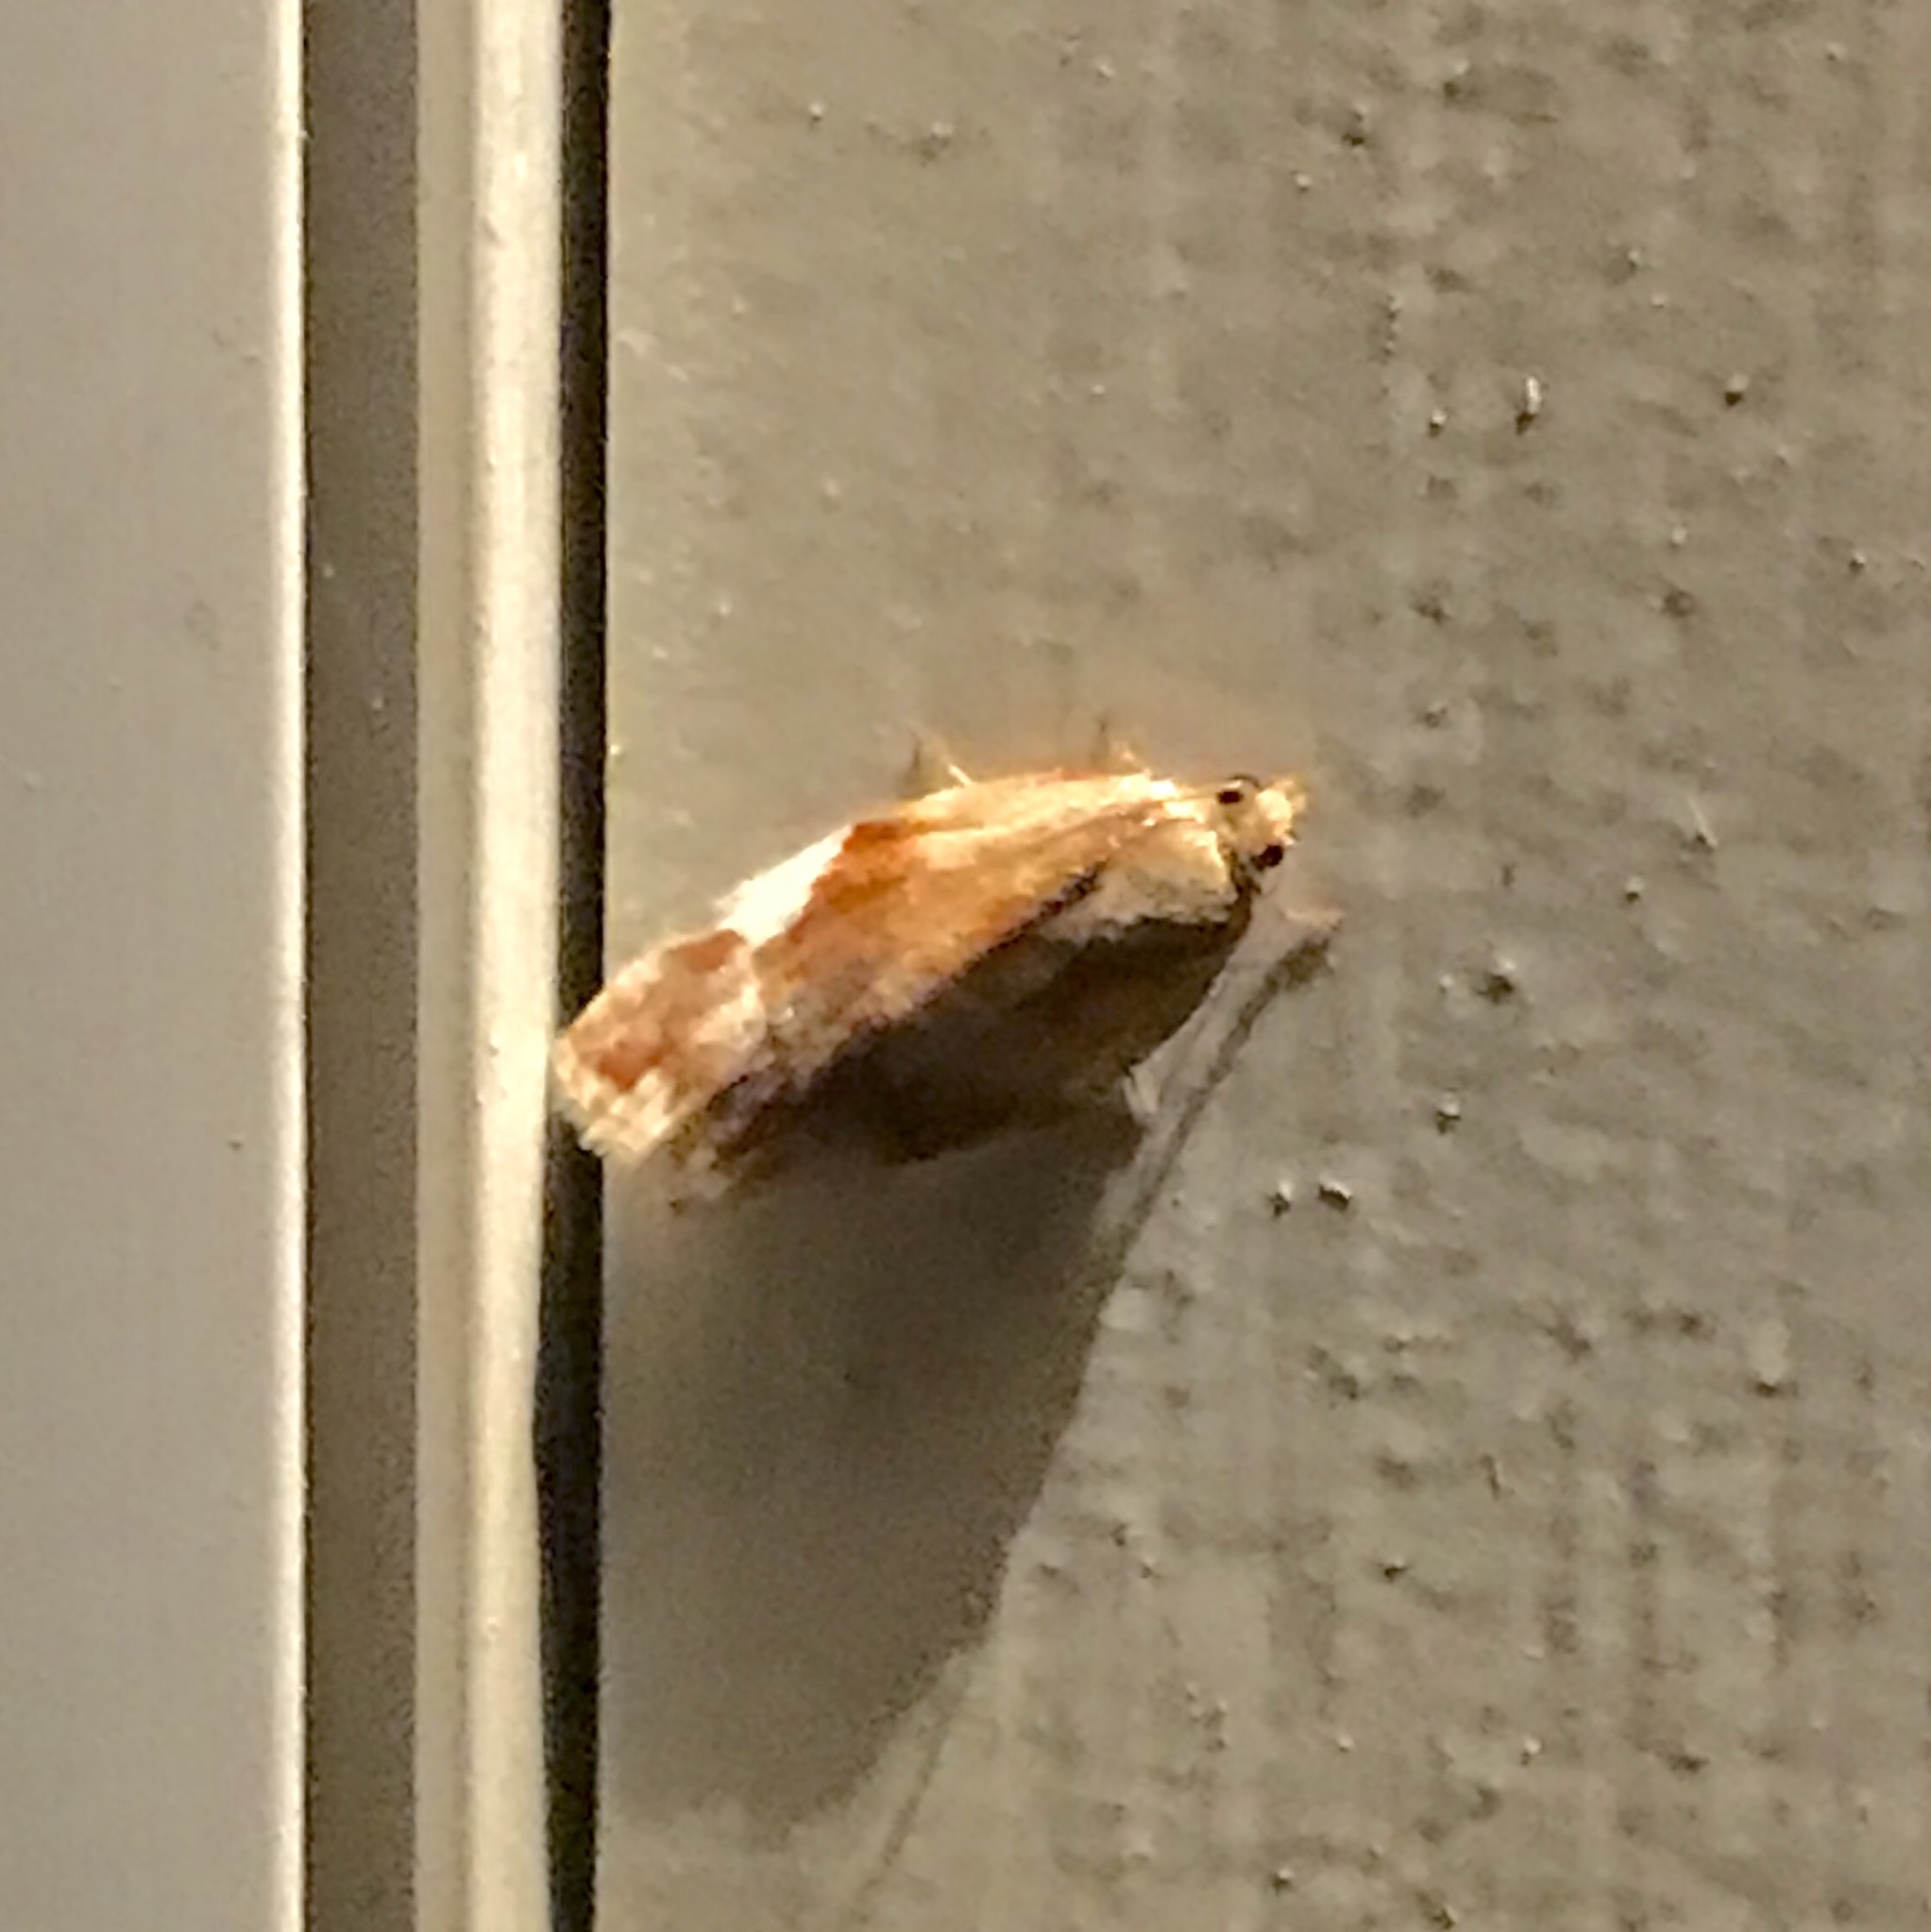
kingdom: Animalia
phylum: Arthropoda
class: Insecta
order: Lepidoptera
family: Tortricidae
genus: Clepsis
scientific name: Clepsis persicana
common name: White triangle tortrix
